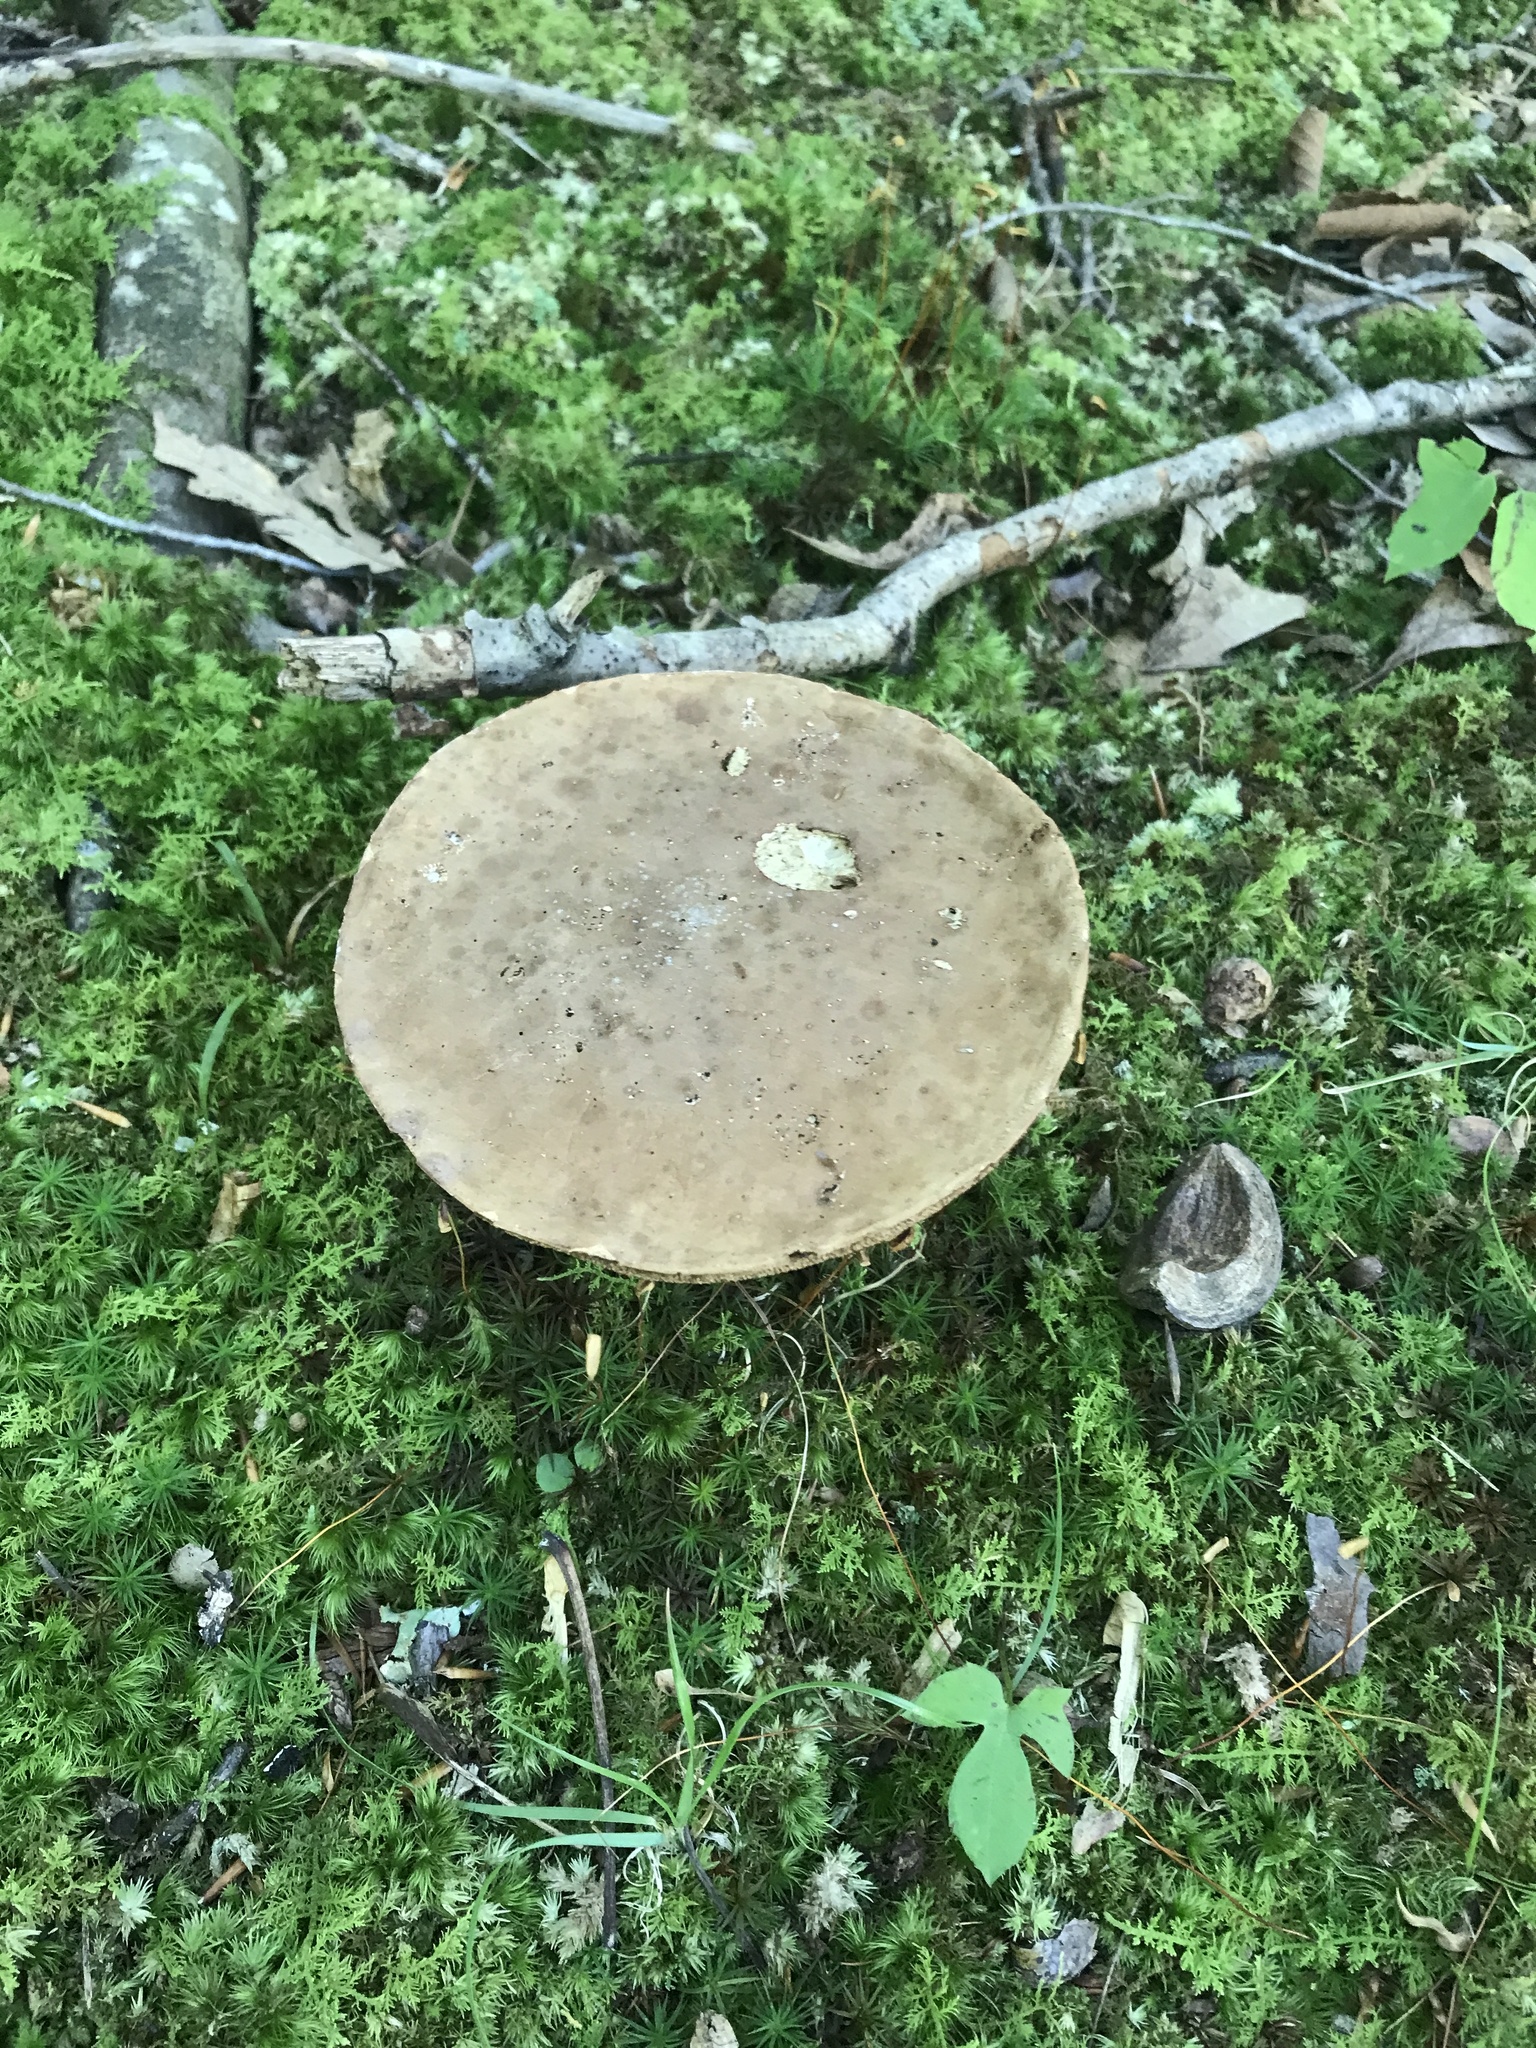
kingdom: Fungi
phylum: Basidiomycota
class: Agaricomycetes
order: Boletales
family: Boletaceae
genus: Tylopilus
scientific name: Tylopilus rubrobrunneus
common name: Reddish brown bitter bolete
